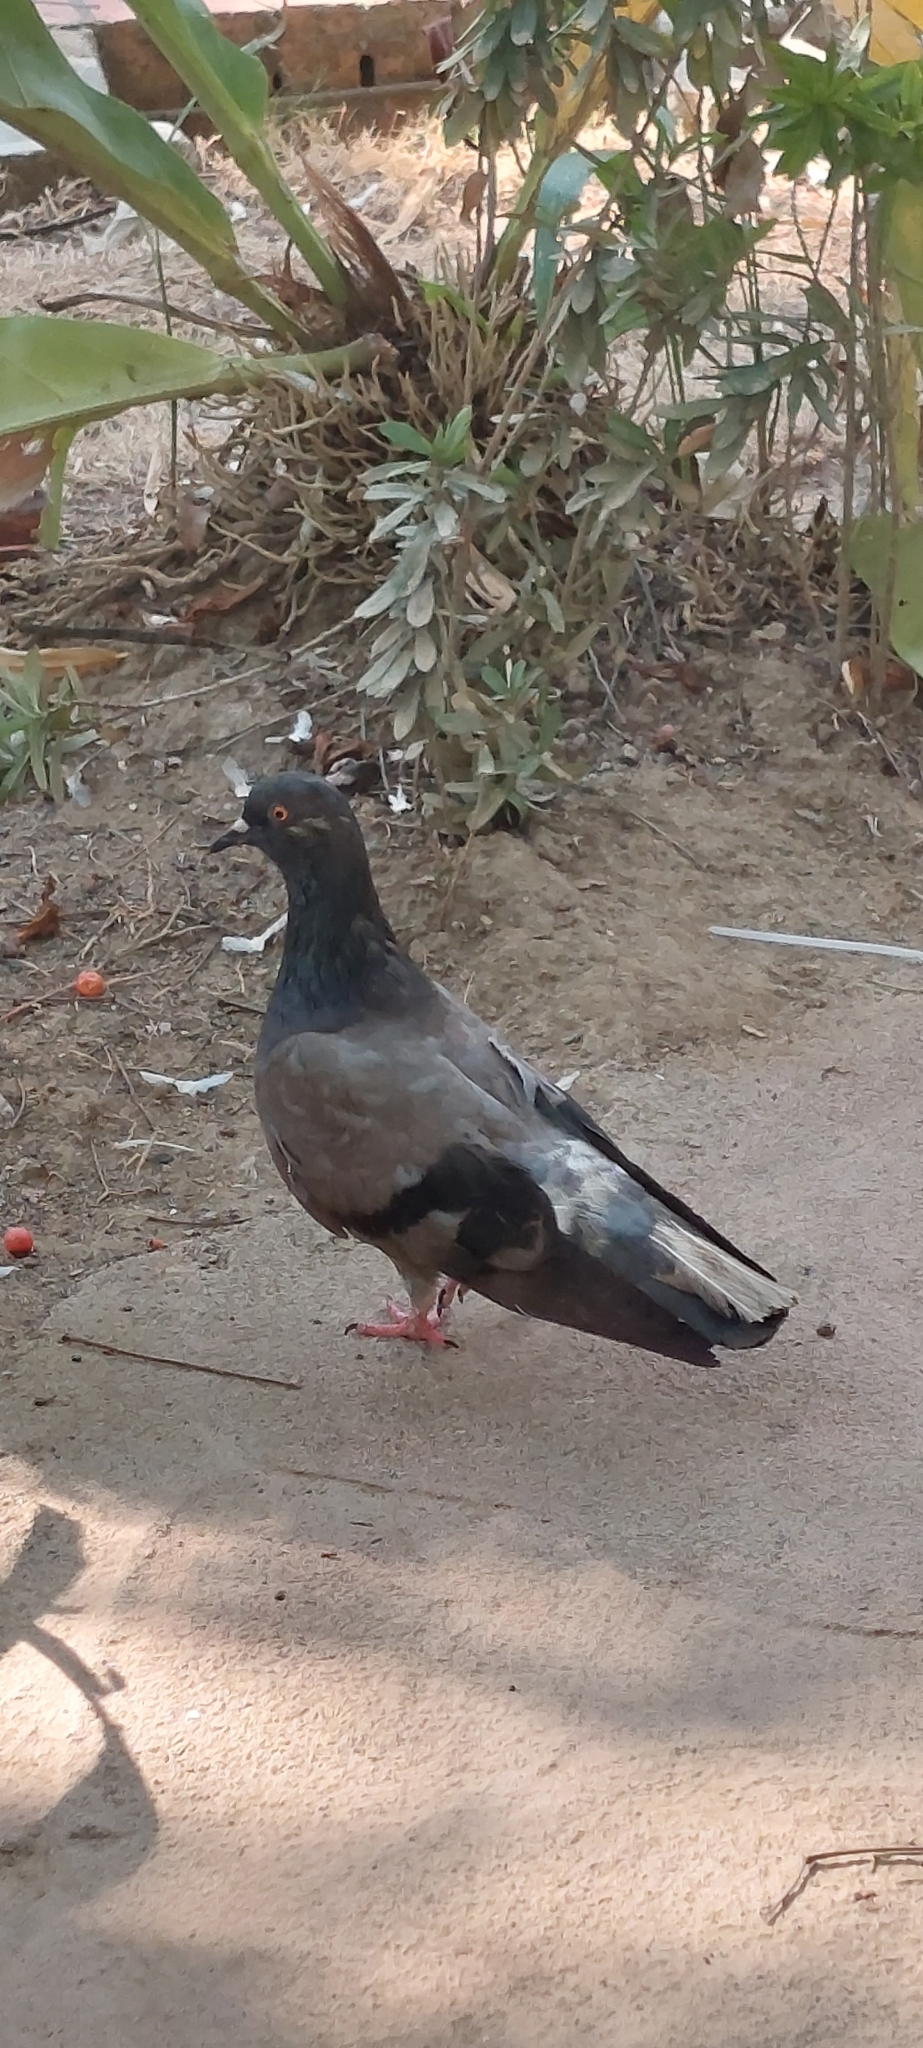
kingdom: Animalia
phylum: Chordata
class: Aves
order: Columbiformes
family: Columbidae
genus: Columba
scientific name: Columba livia
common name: Rock pigeon
